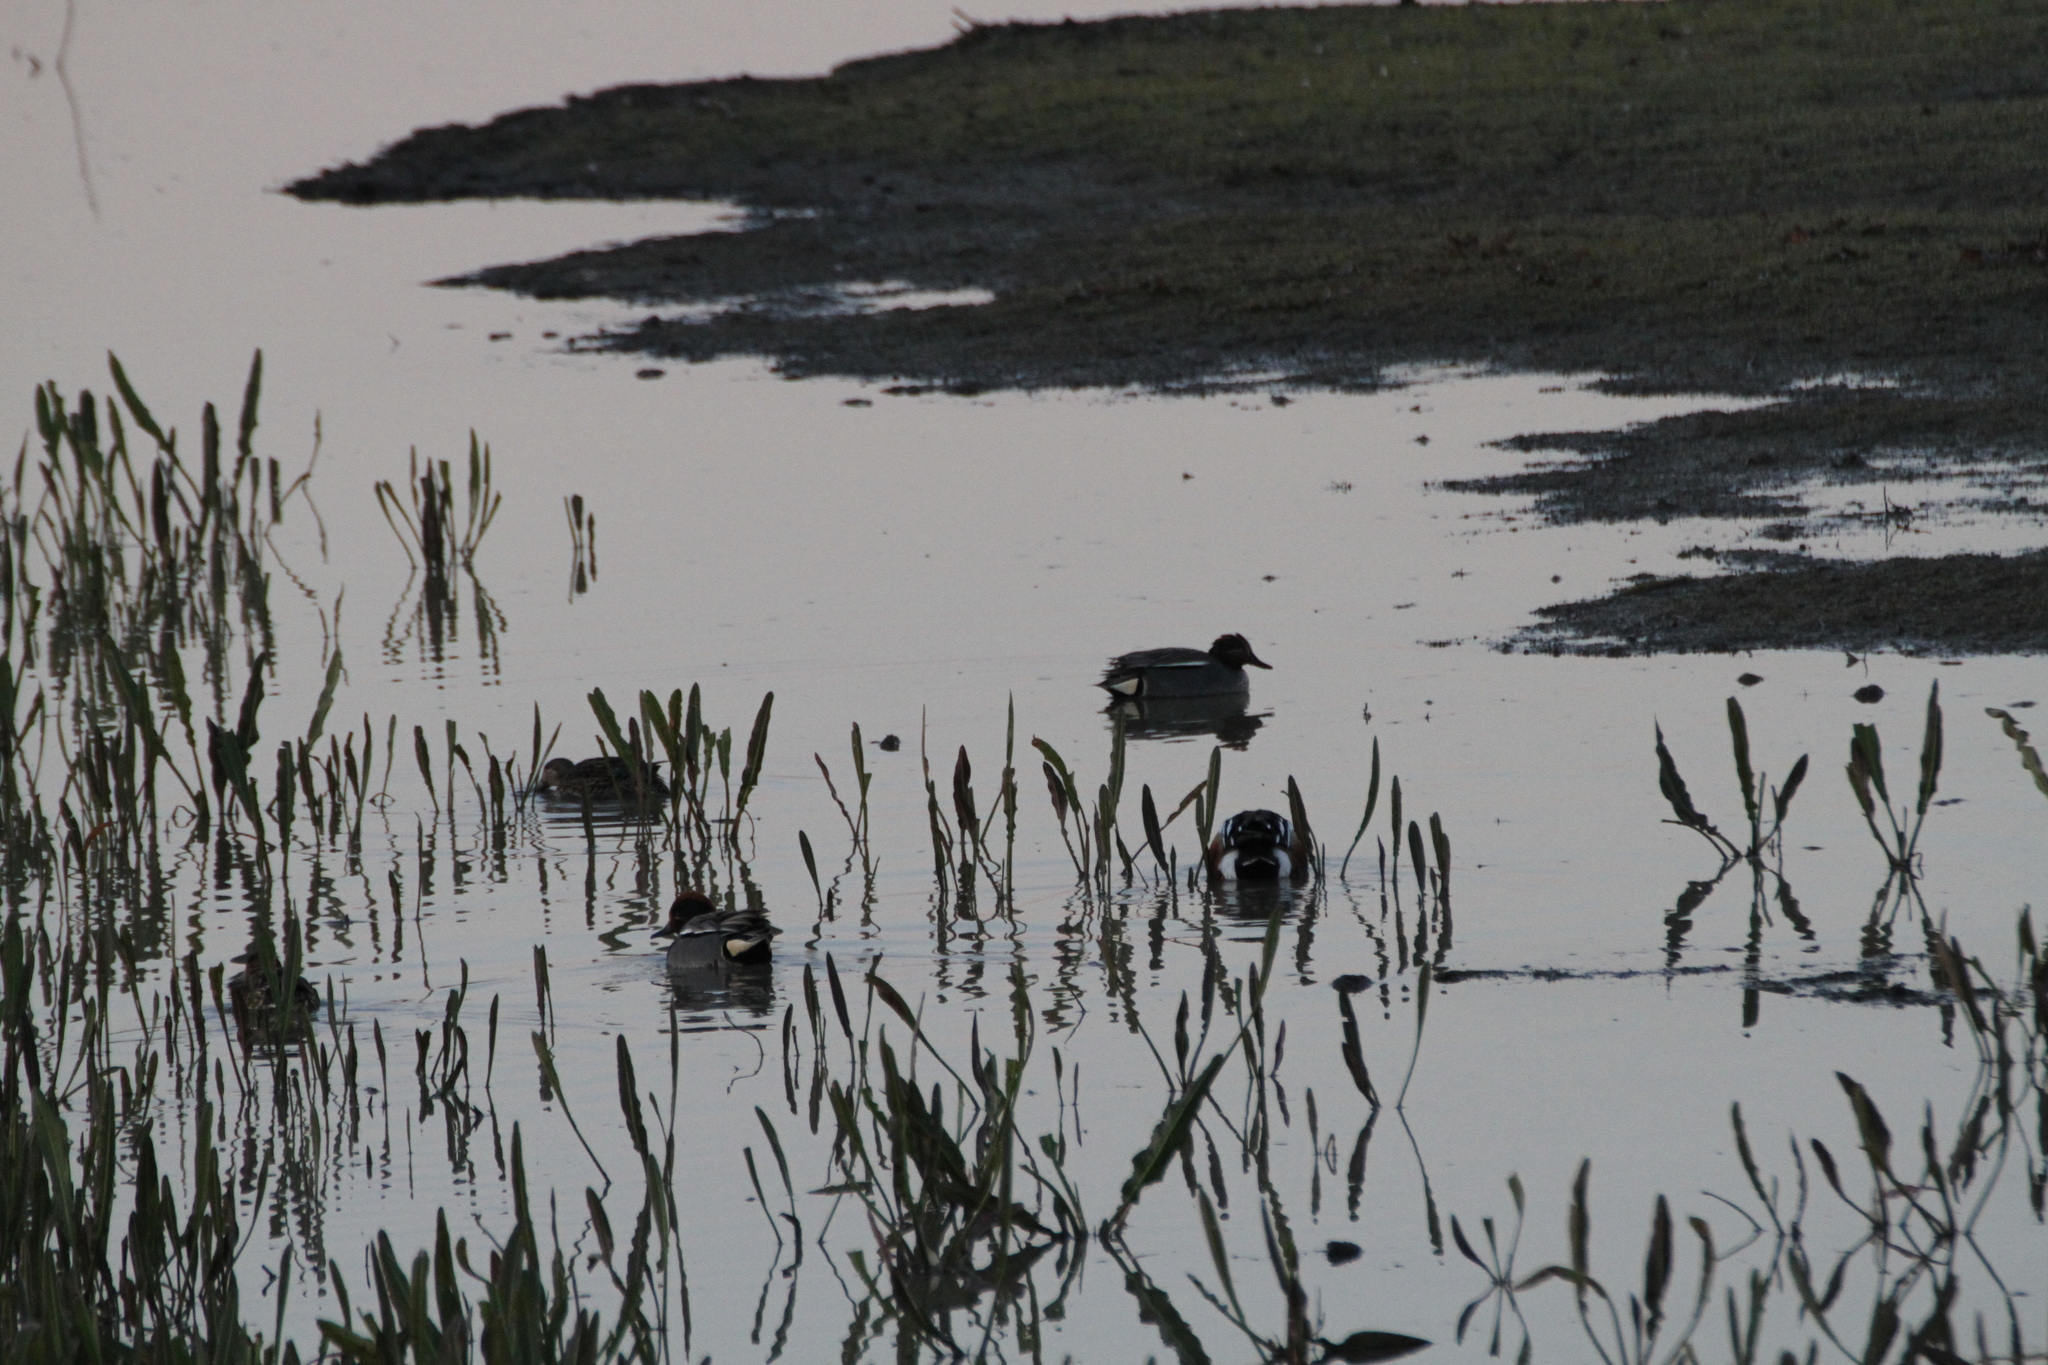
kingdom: Animalia
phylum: Chordata
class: Aves
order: Anseriformes
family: Anatidae
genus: Anas
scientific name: Anas crecca
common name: Eurasian teal
